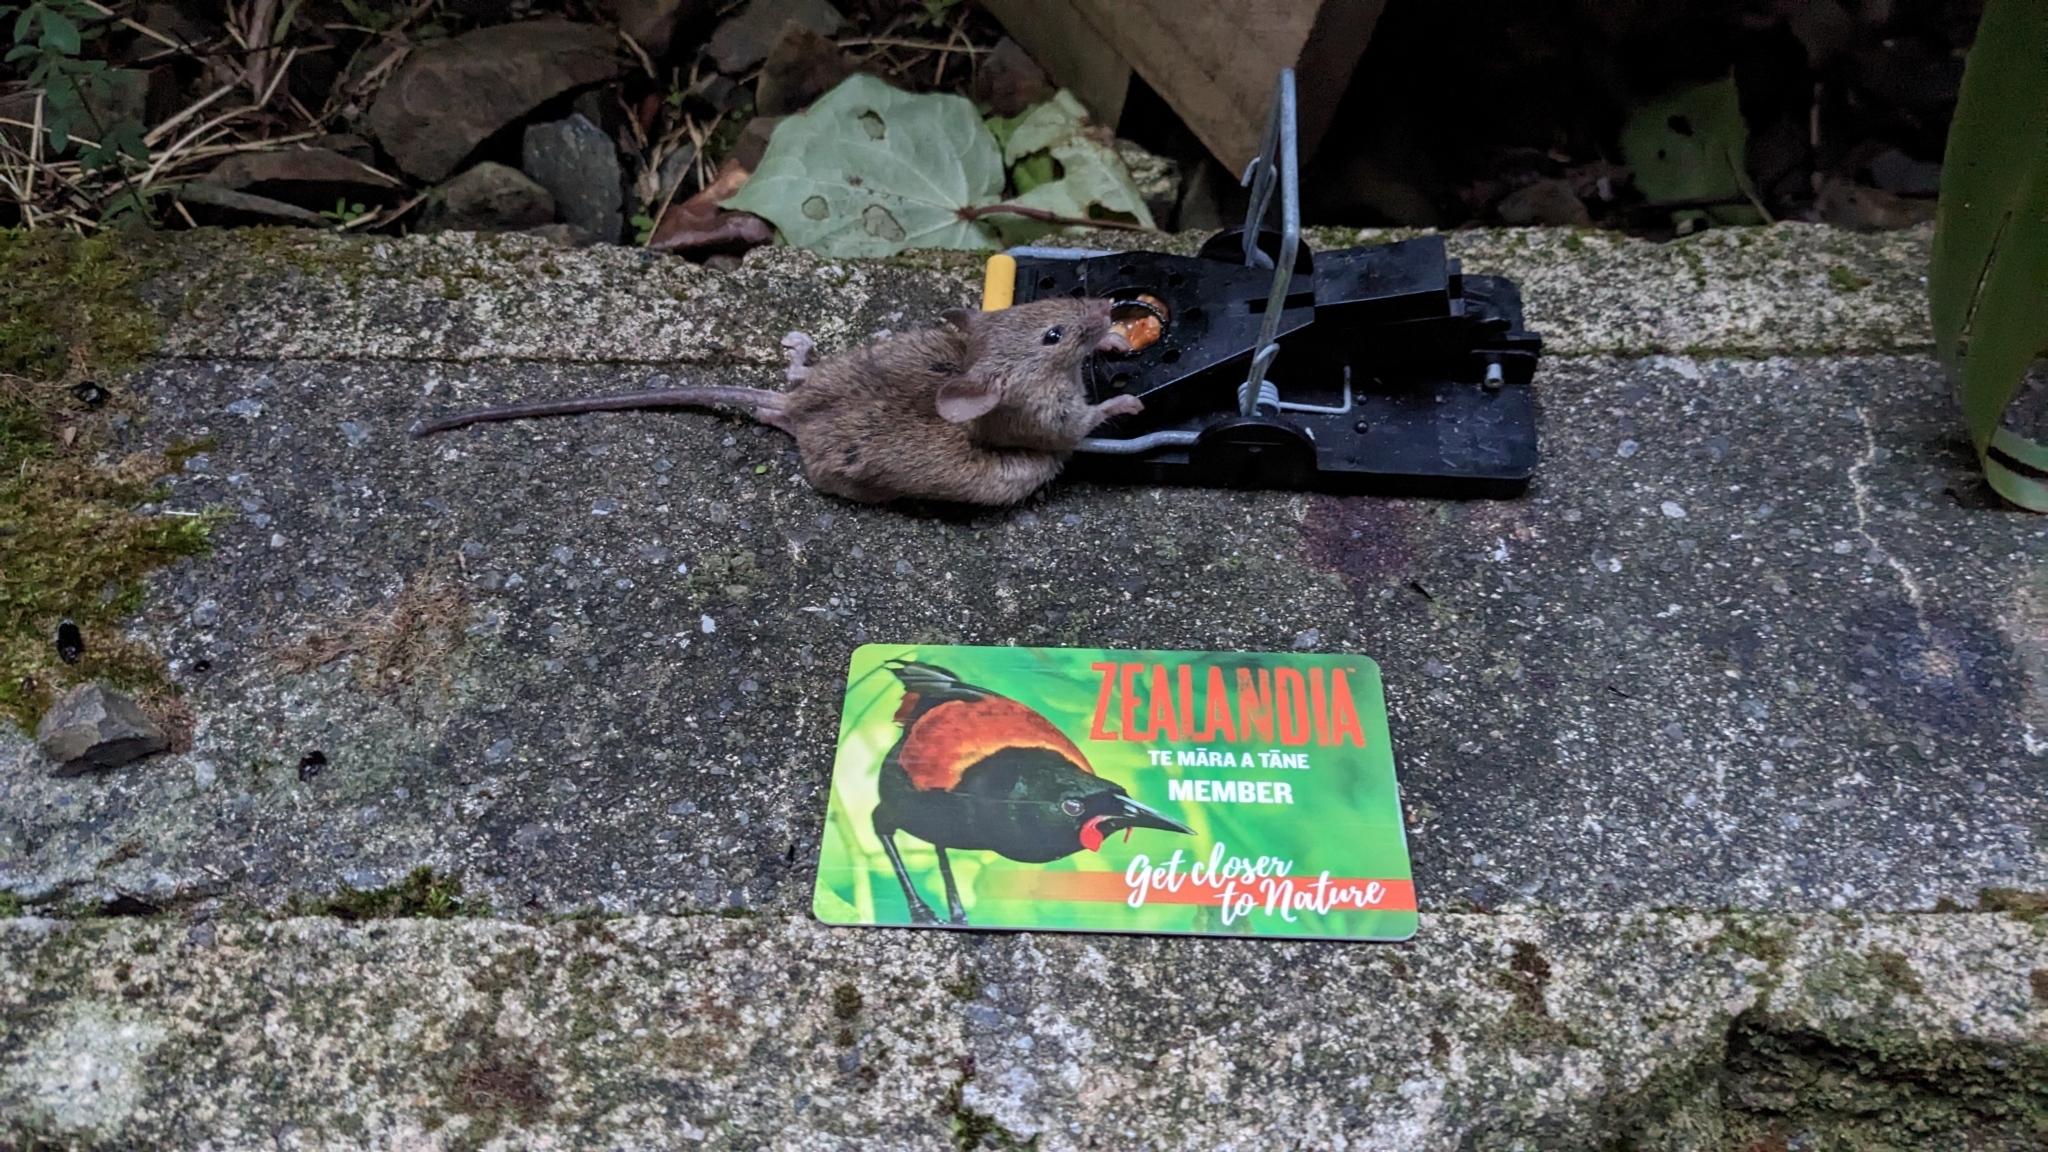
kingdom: Animalia
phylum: Chordata
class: Mammalia
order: Rodentia
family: Muridae
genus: Mus
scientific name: Mus musculus
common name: House mouse
